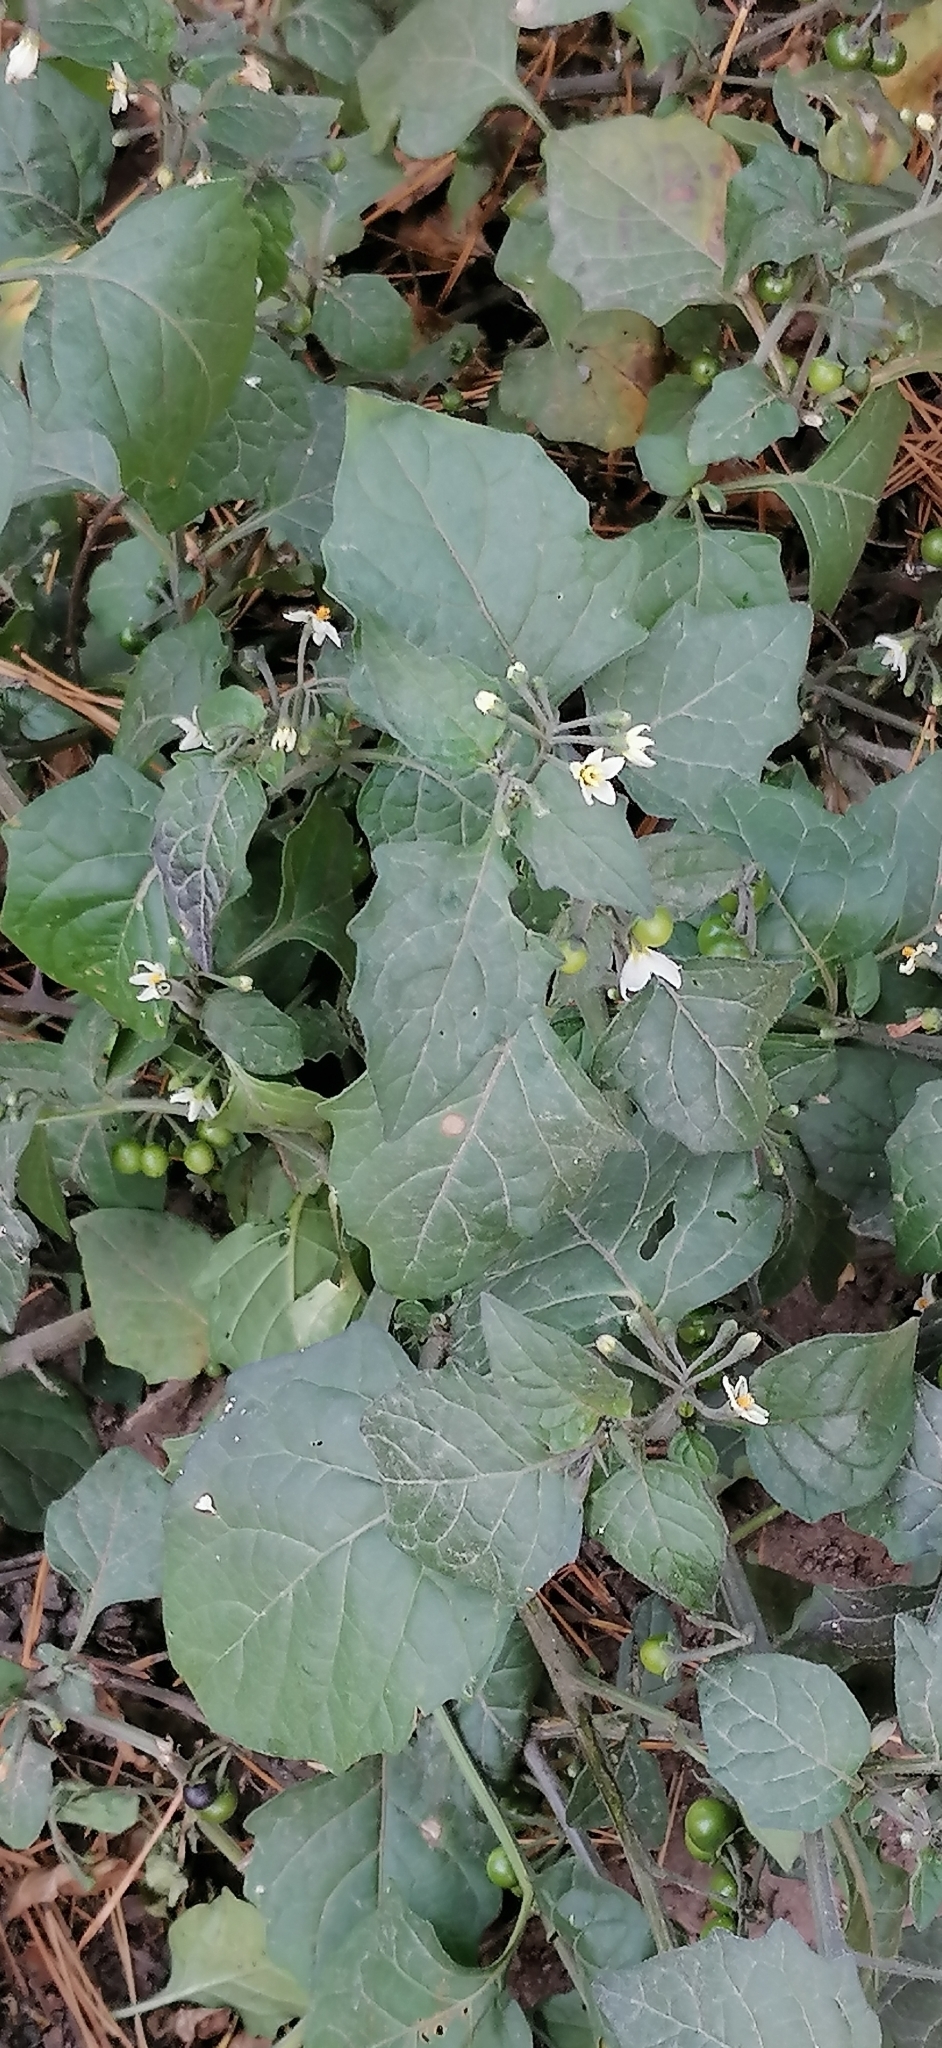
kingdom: Plantae
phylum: Tracheophyta
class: Magnoliopsida
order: Solanales
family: Solanaceae
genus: Solanum
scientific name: Solanum nigrum
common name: Black nightshade
